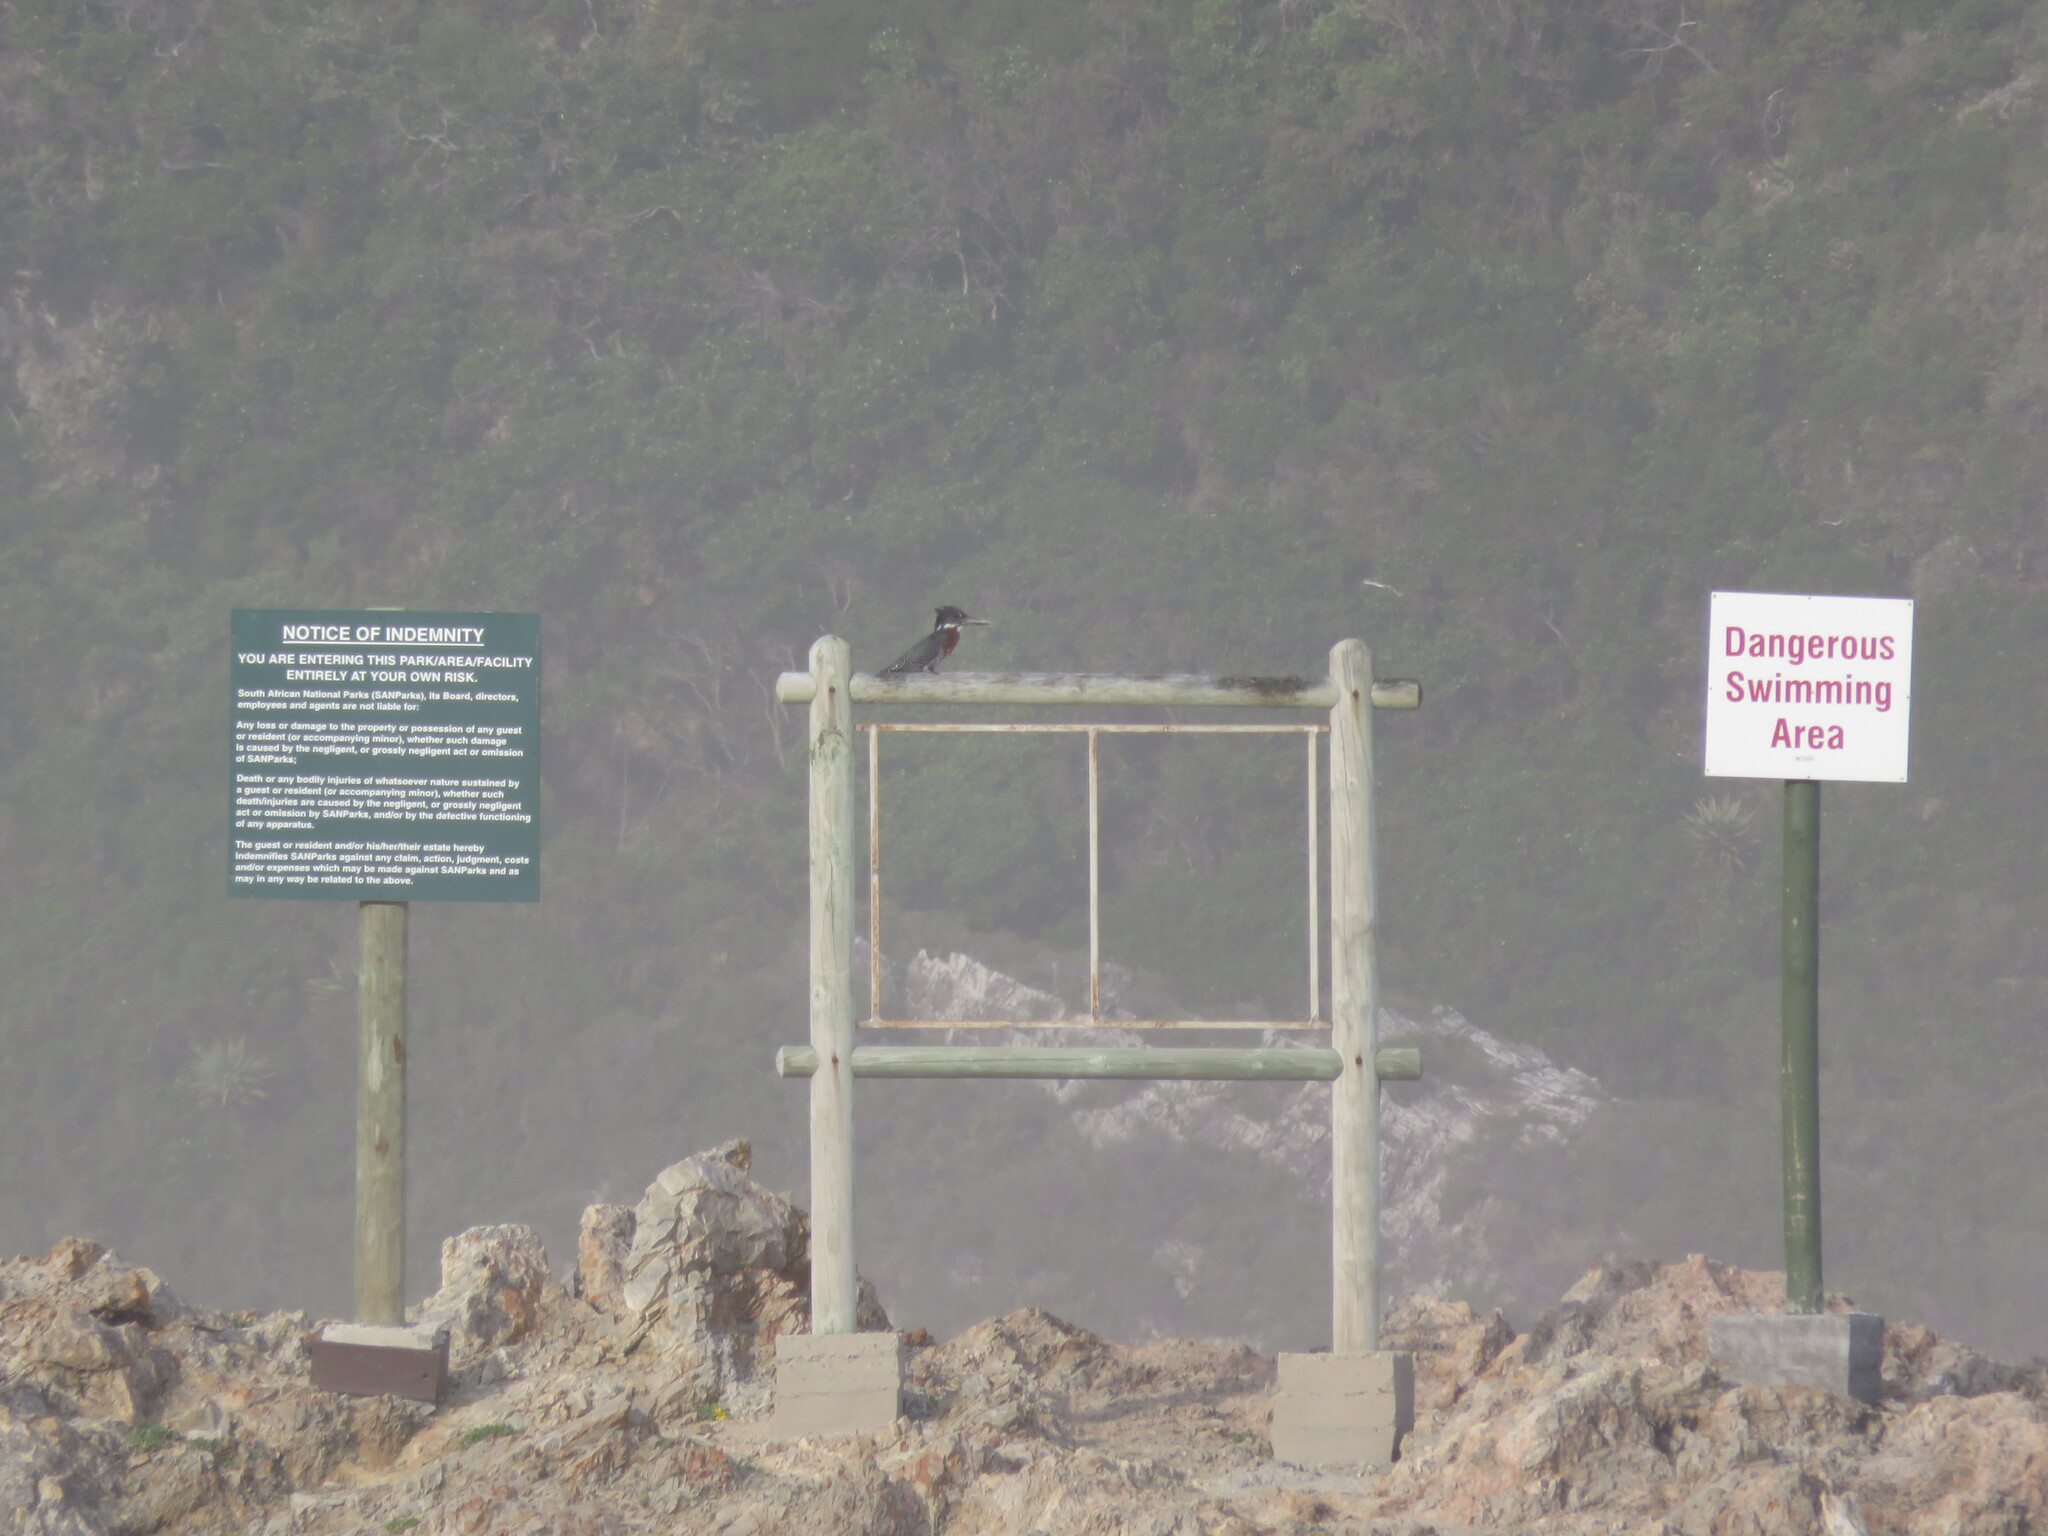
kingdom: Animalia
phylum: Chordata
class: Aves
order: Coraciiformes
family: Alcedinidae
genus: Megaceryle
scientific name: Megaceryle maxima
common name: Giant kingfisher
